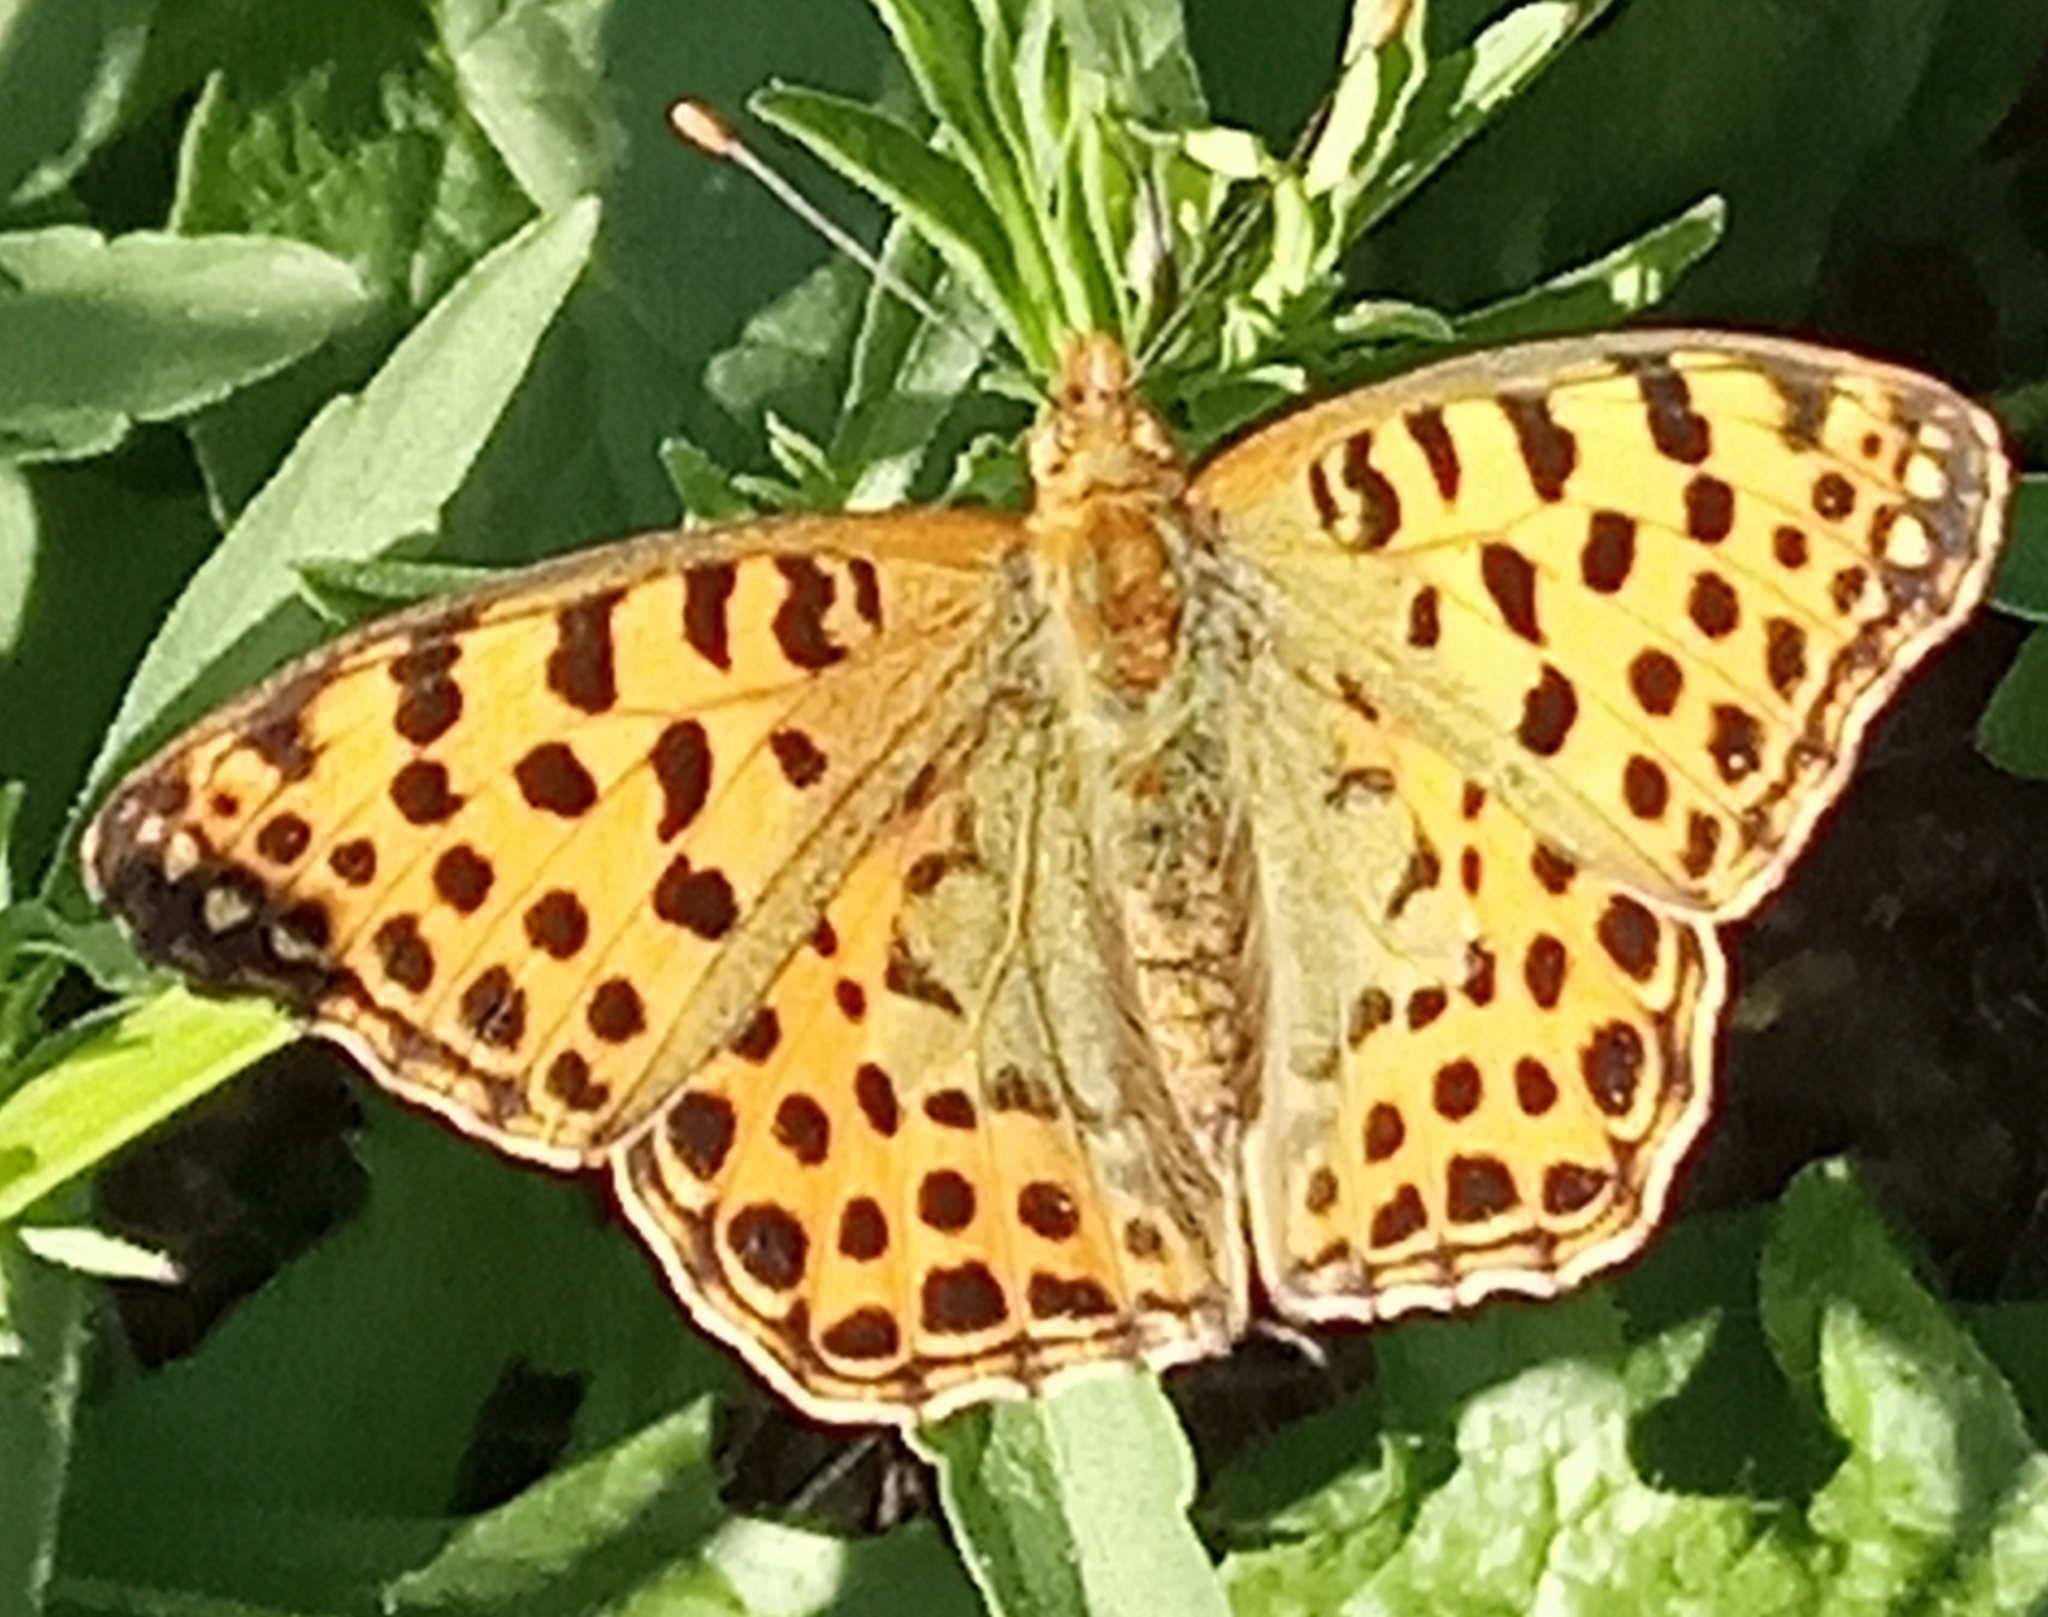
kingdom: Animalia
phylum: Arthropoda
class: Insecta
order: Lepidoptera
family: Nymphalidae
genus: Issoria
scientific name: Issoria lathonia
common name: Queen of spain fritillary
